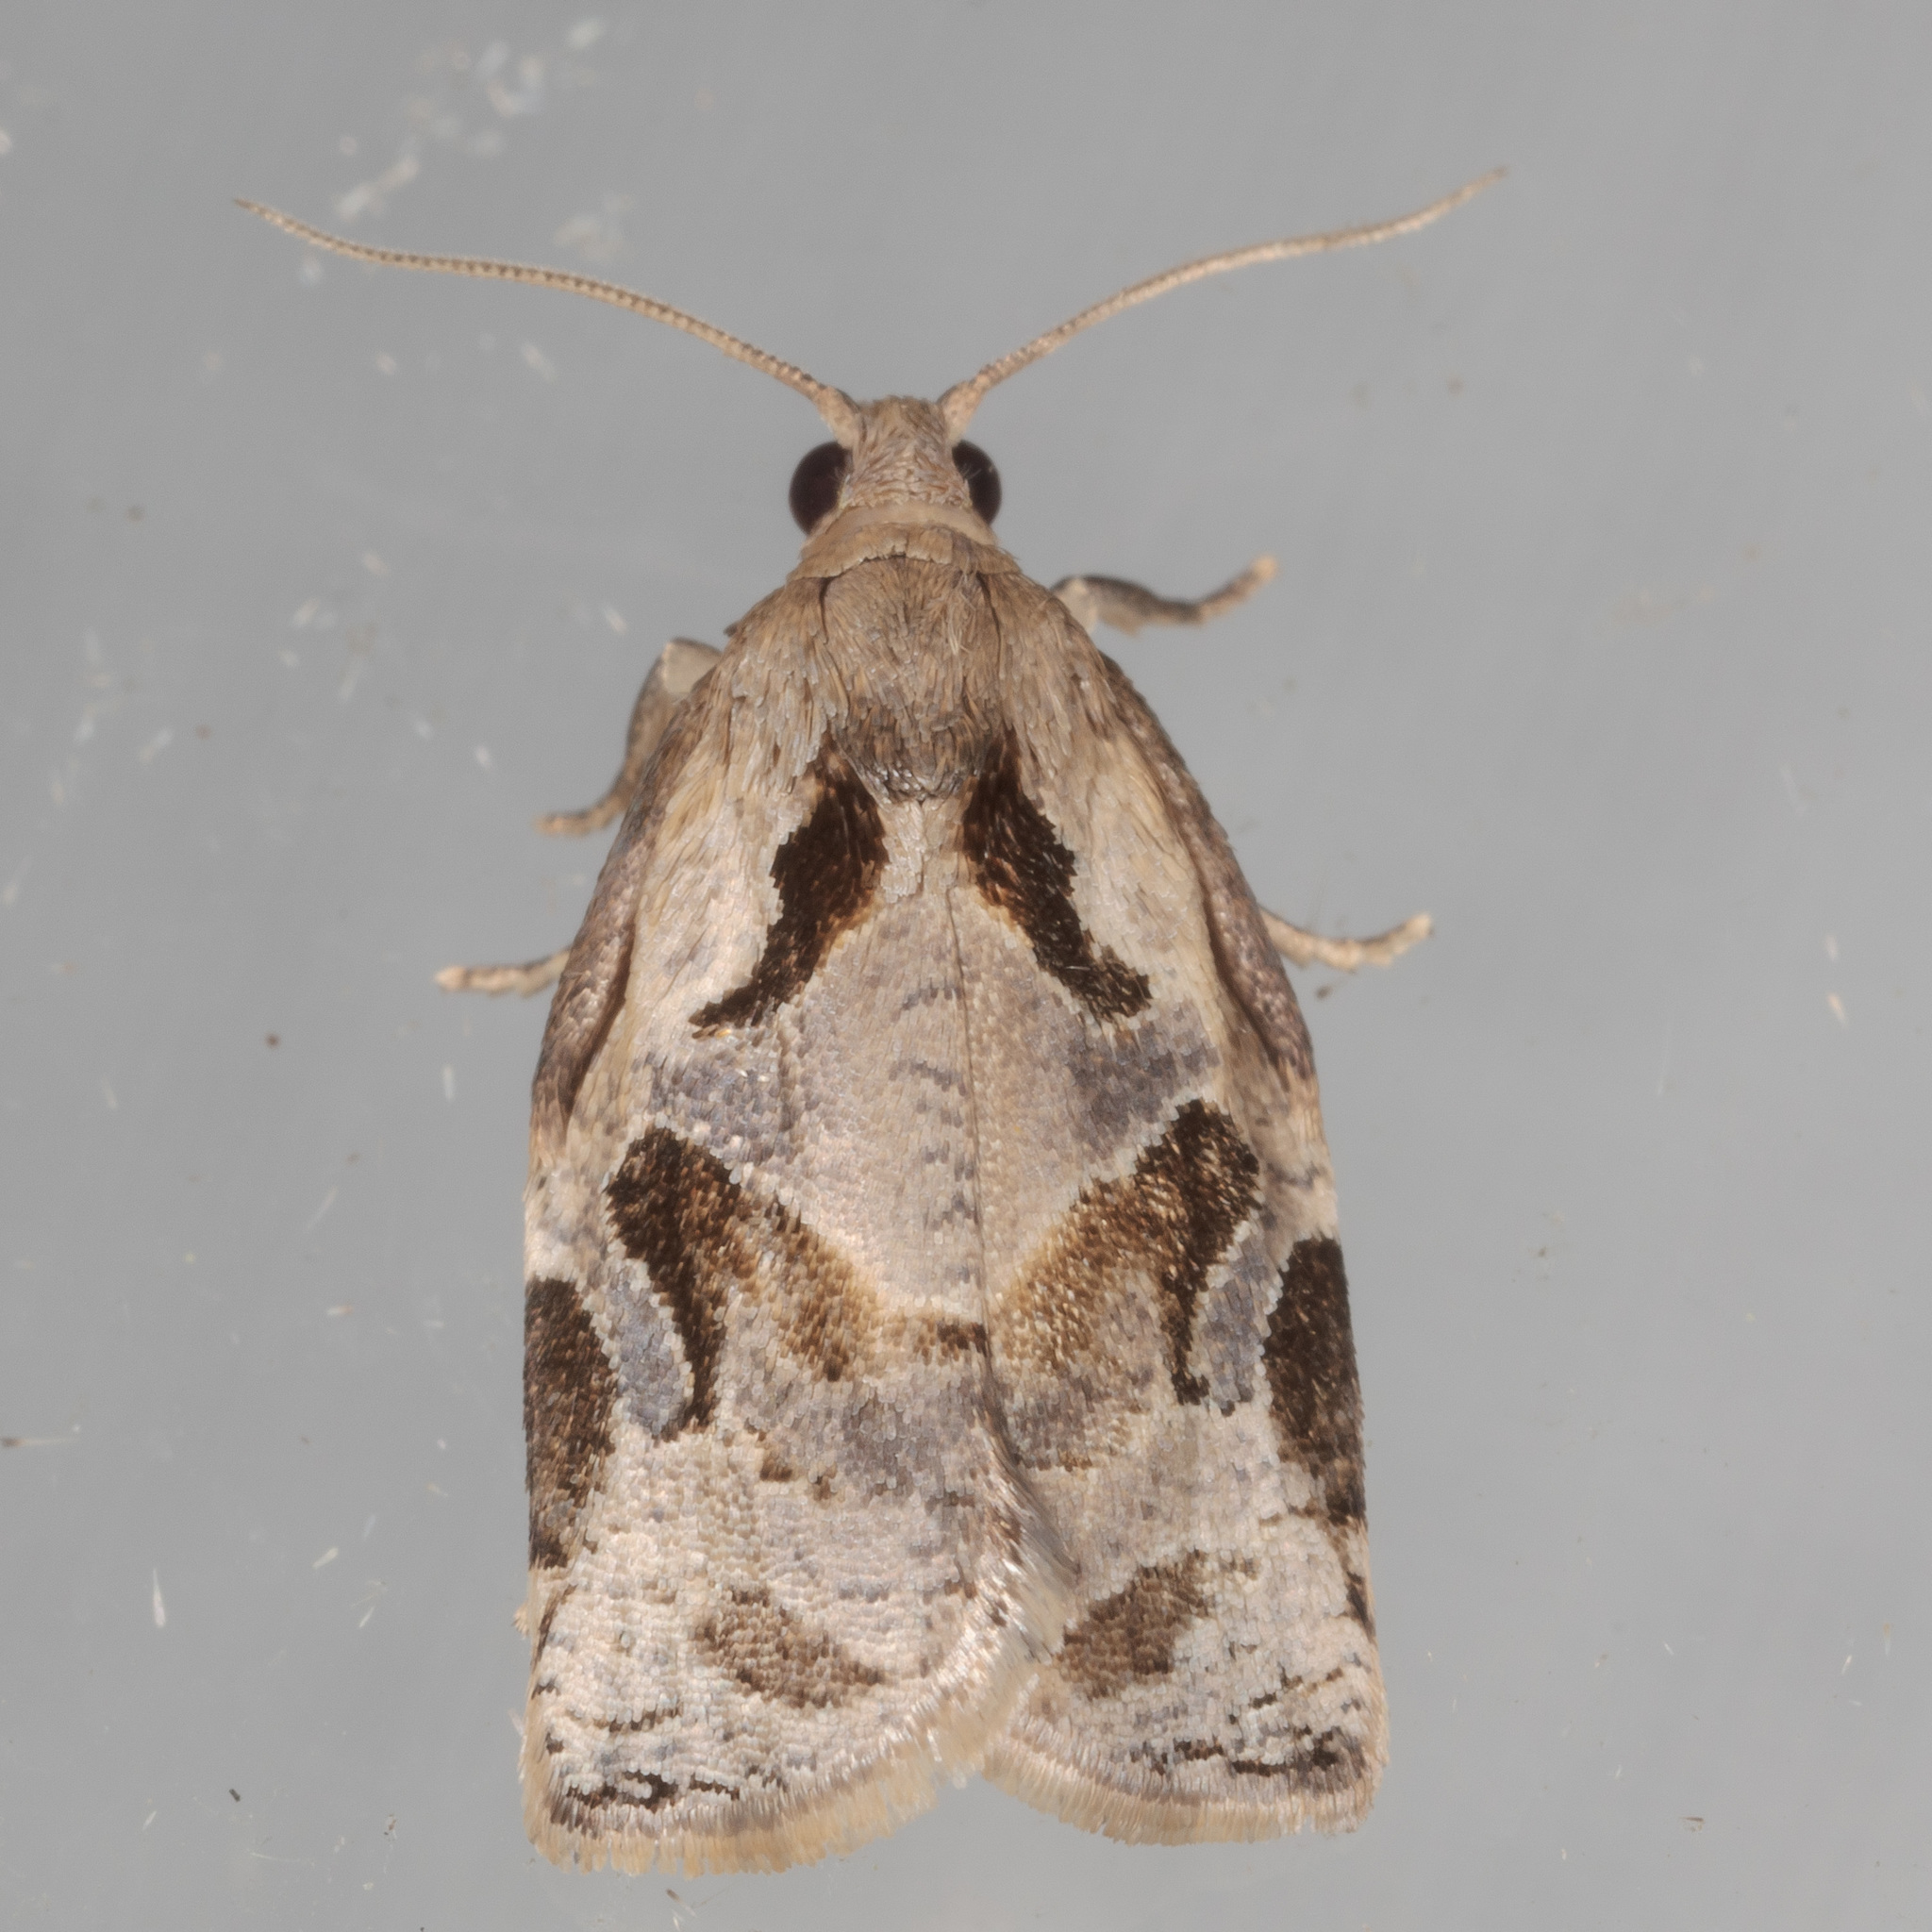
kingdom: Animalia
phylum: Arthropoda
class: Insecta
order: Lepidoptera
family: Tortricidae
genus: Archips
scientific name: Archips grisea
